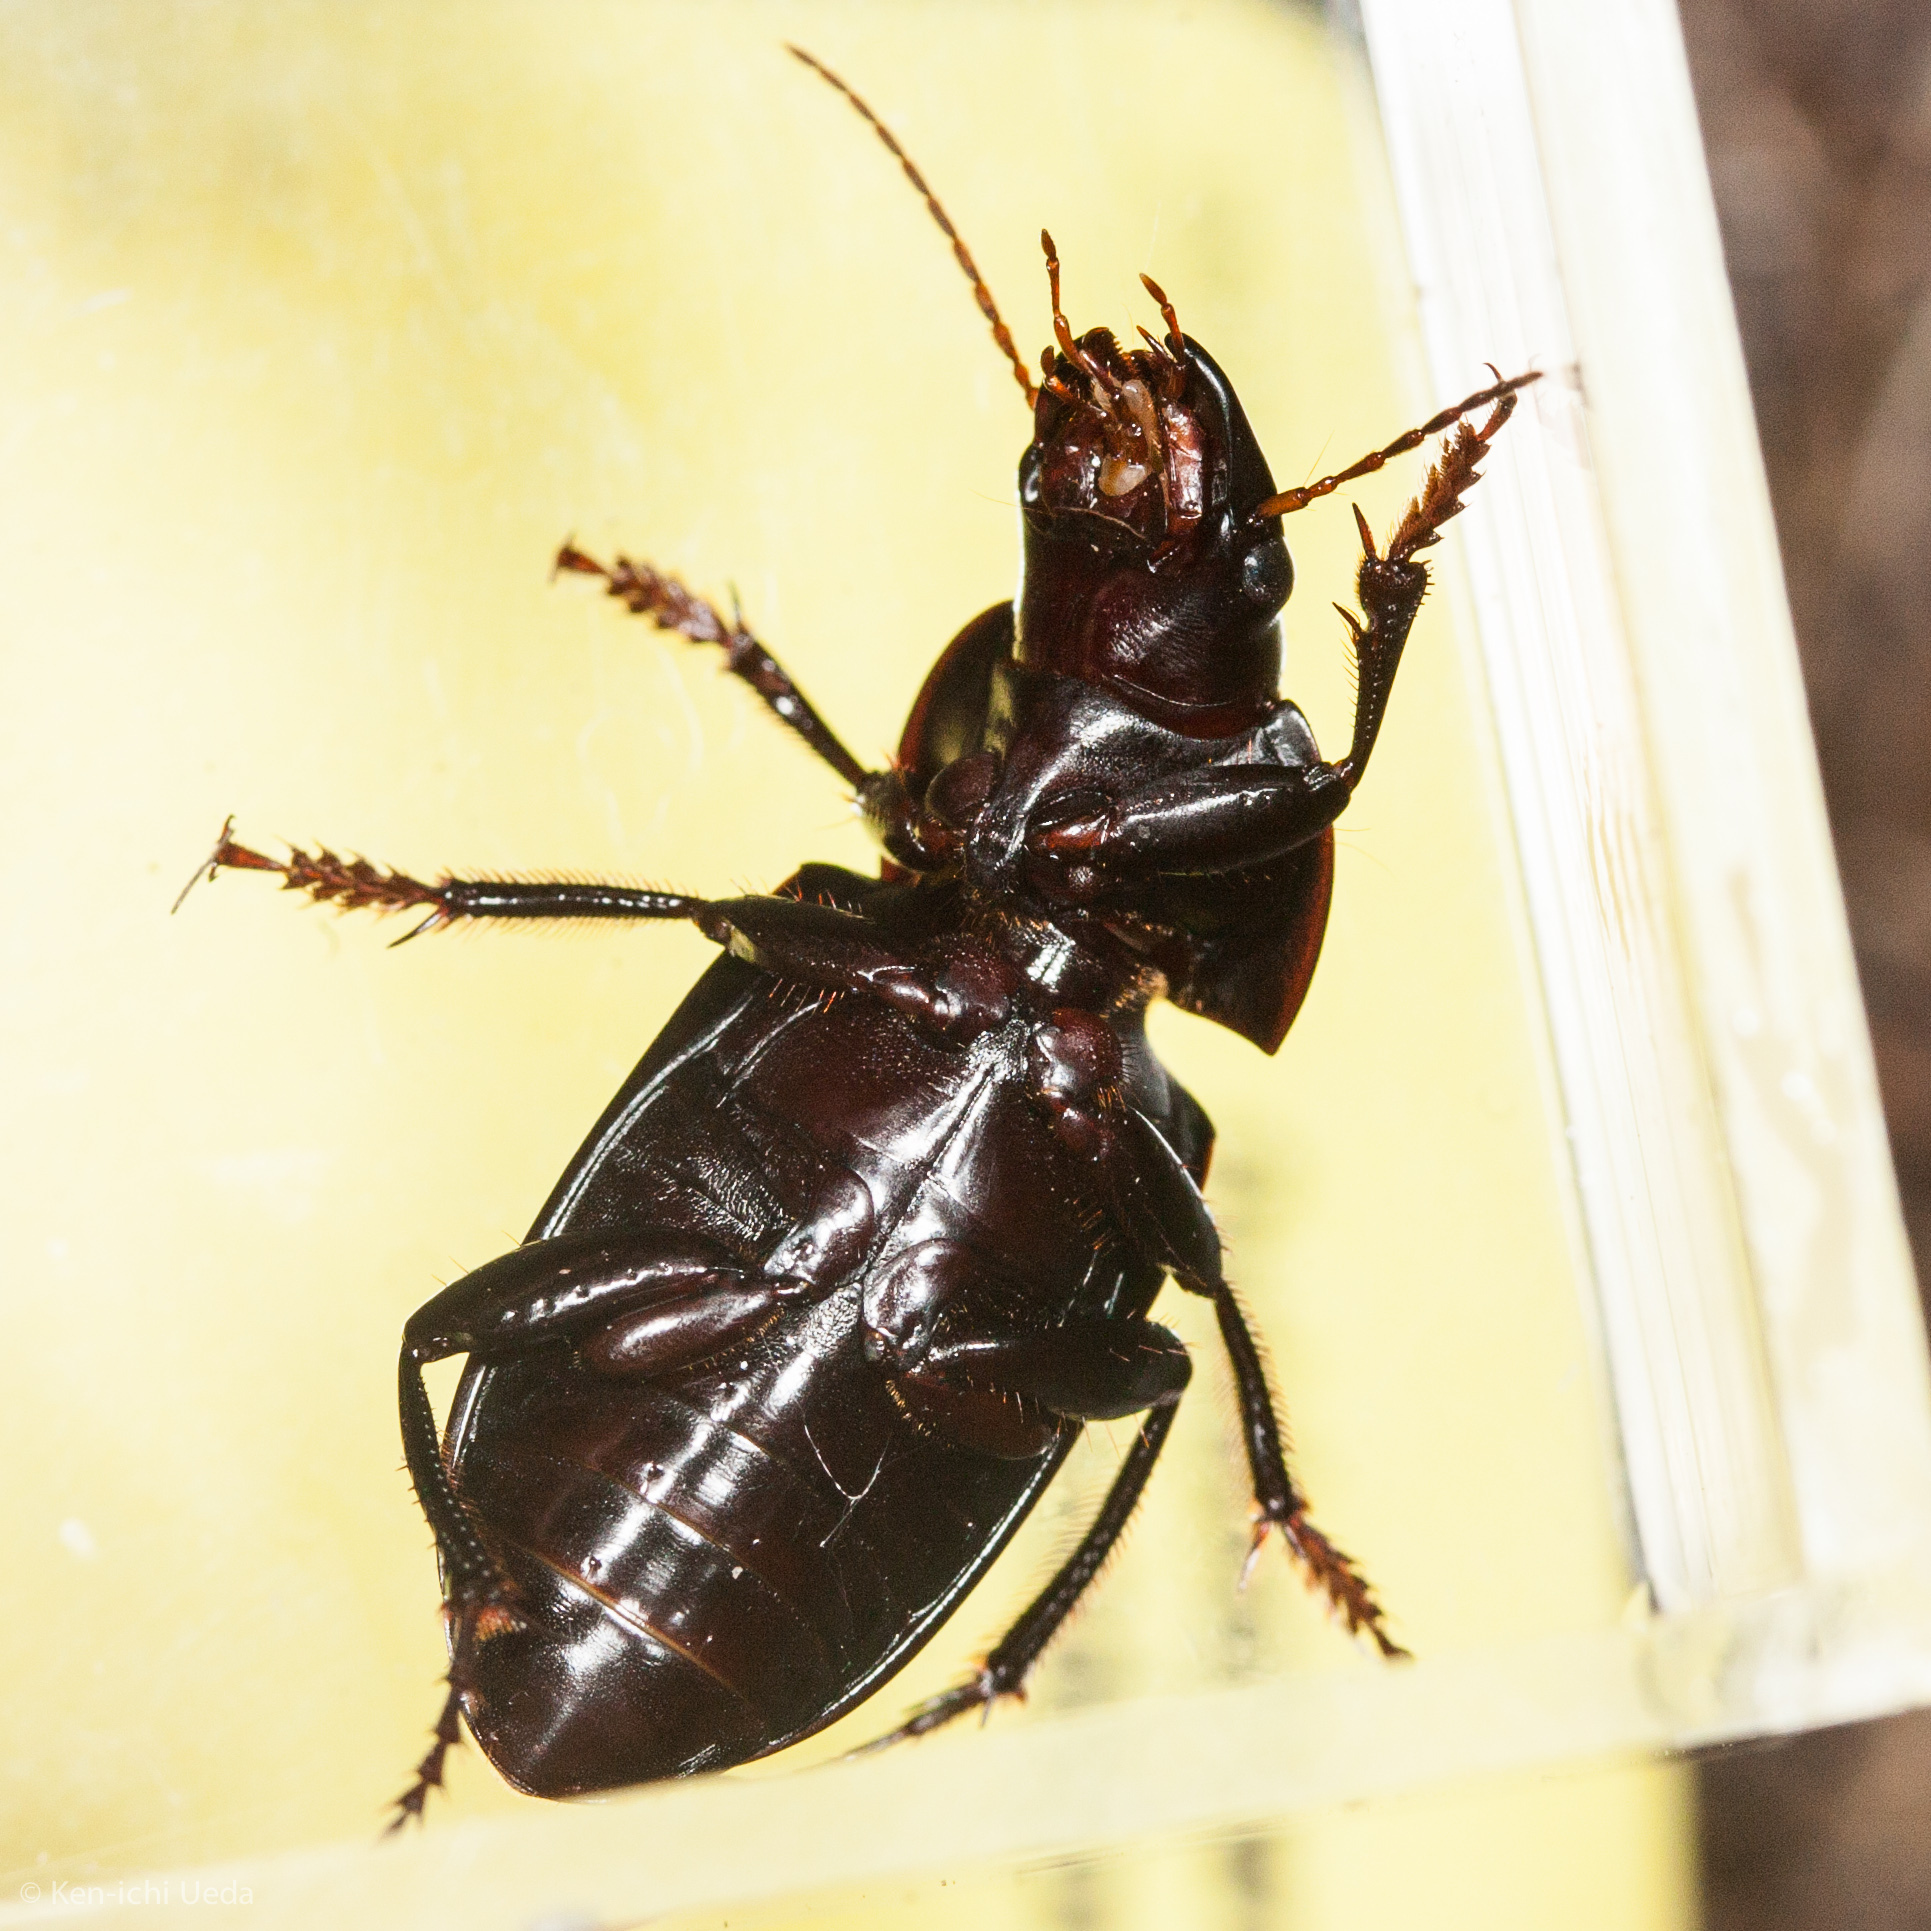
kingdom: Animalia
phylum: Arthropoda
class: Insecta
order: Coleoptera
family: Carabidae
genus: Harpalus
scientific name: Harpalus caliginosus
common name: Murky ground beetle
